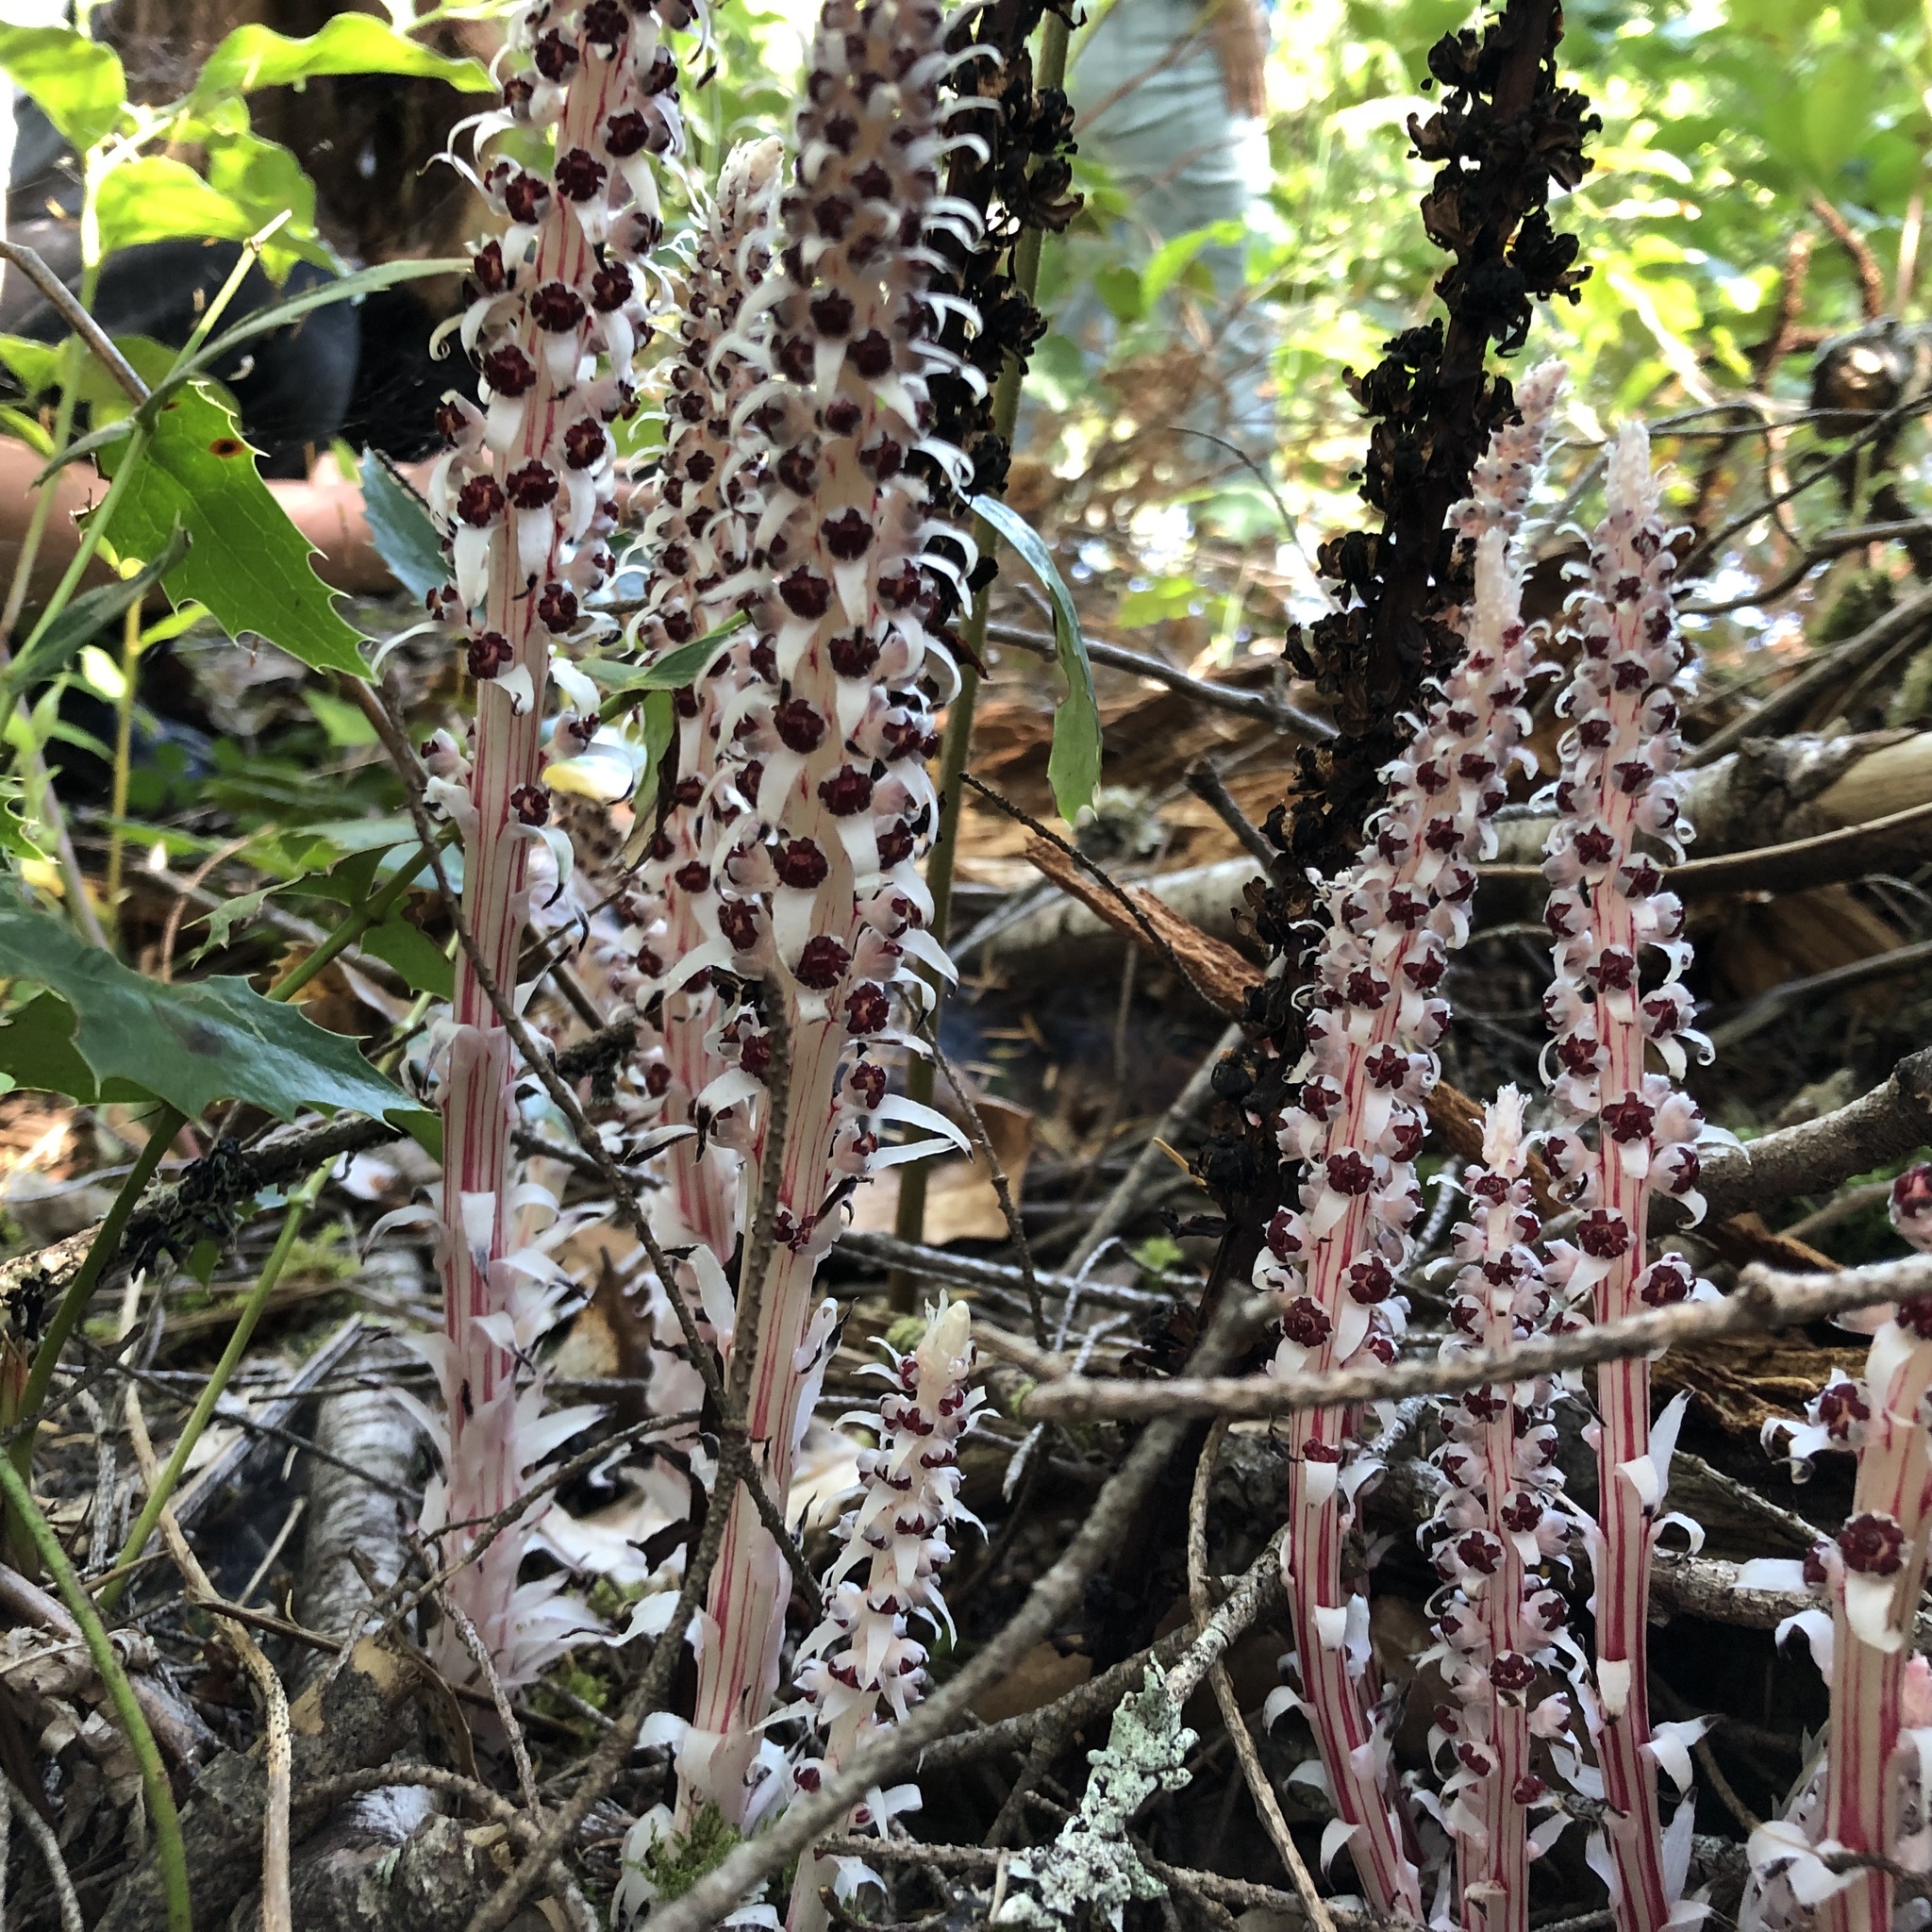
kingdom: Plantae
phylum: Tracheophyta
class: Magnoliopsida
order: Ericales
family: Ericaceae
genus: Allotropa
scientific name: Allotropa virgata
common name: Candy-striped allotropa
